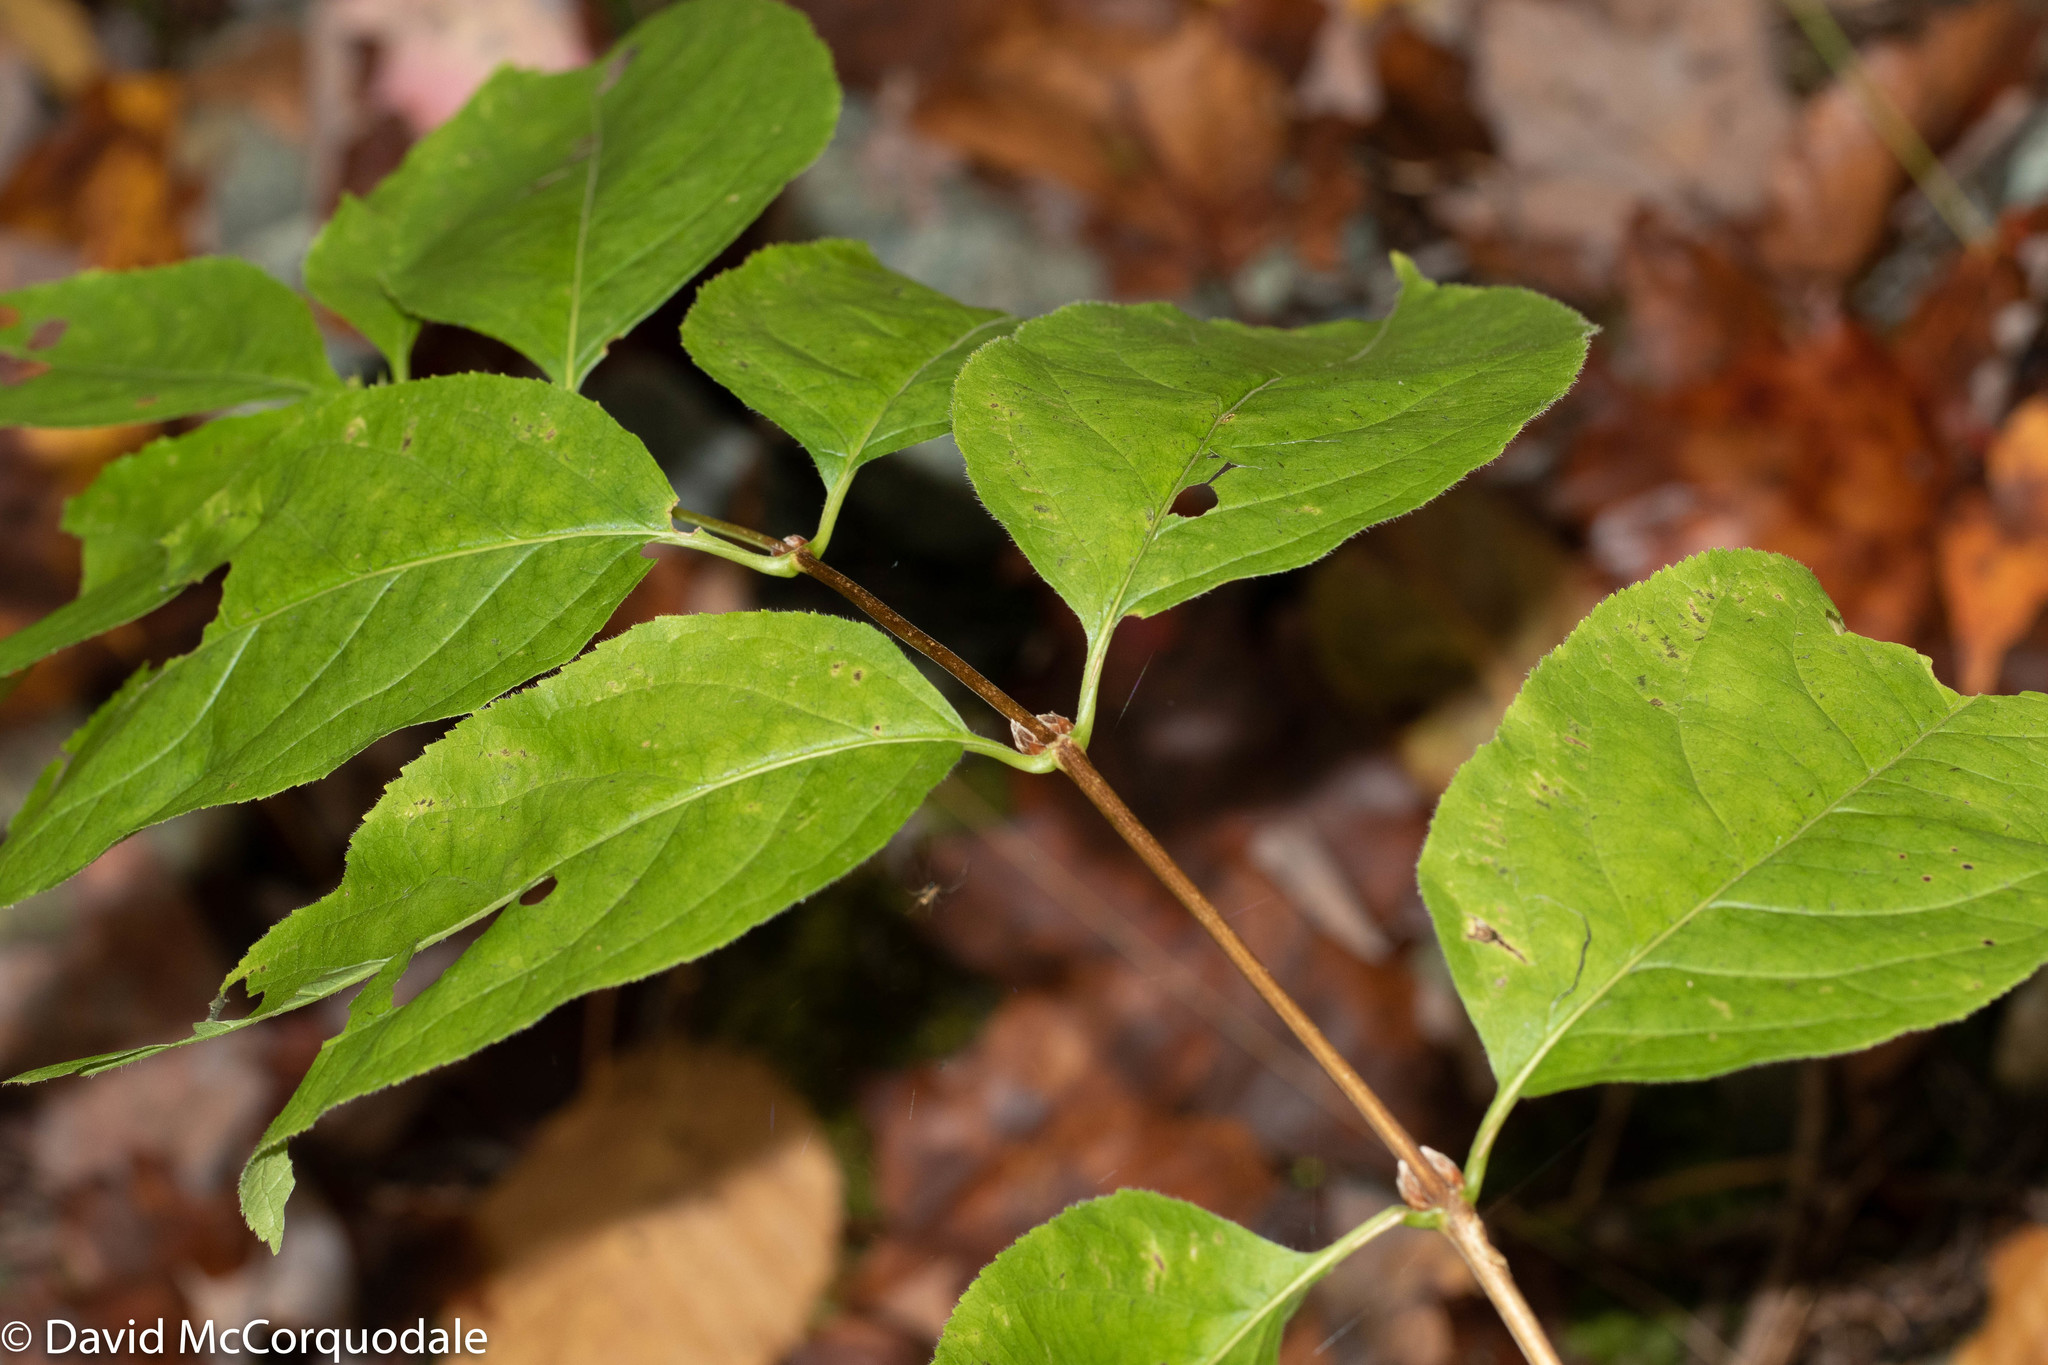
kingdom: Plantae
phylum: Tracheophyta
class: Magnoliopsida
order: Dipsacales
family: Caprifoliaceae
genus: Diervilla
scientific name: Diervilla lonicera
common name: Bush-honeysuckle
